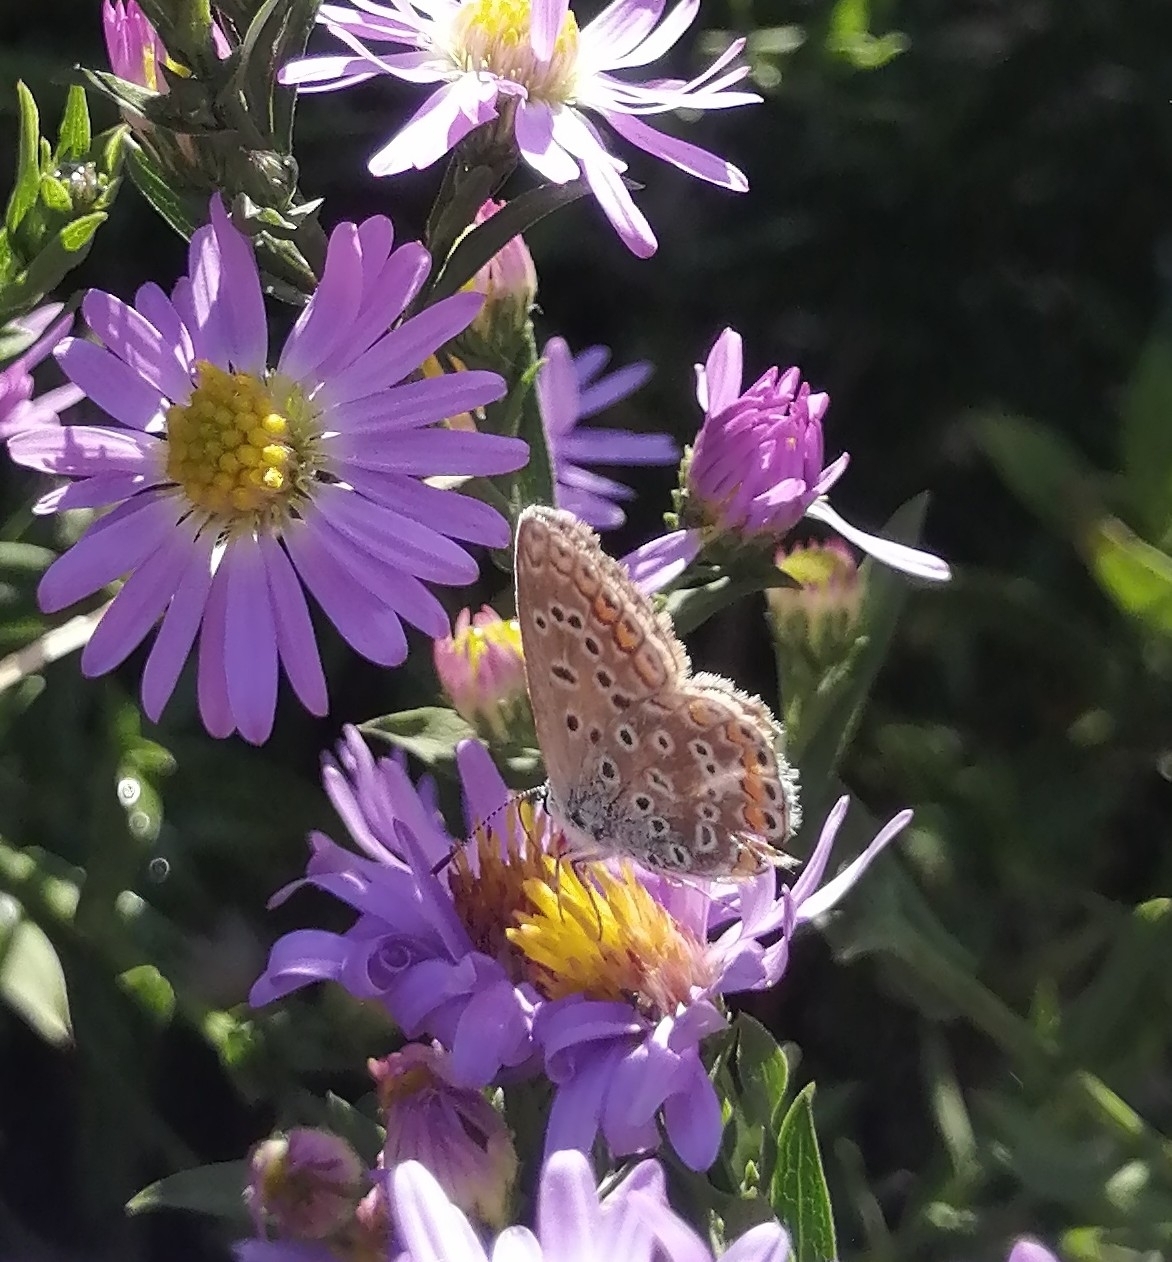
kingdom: Animalia
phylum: Arthropoda
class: Insecta
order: Lepidoptera
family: Lycaenidae
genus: Polyommatus
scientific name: Polyommatus icarus
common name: Common blue
